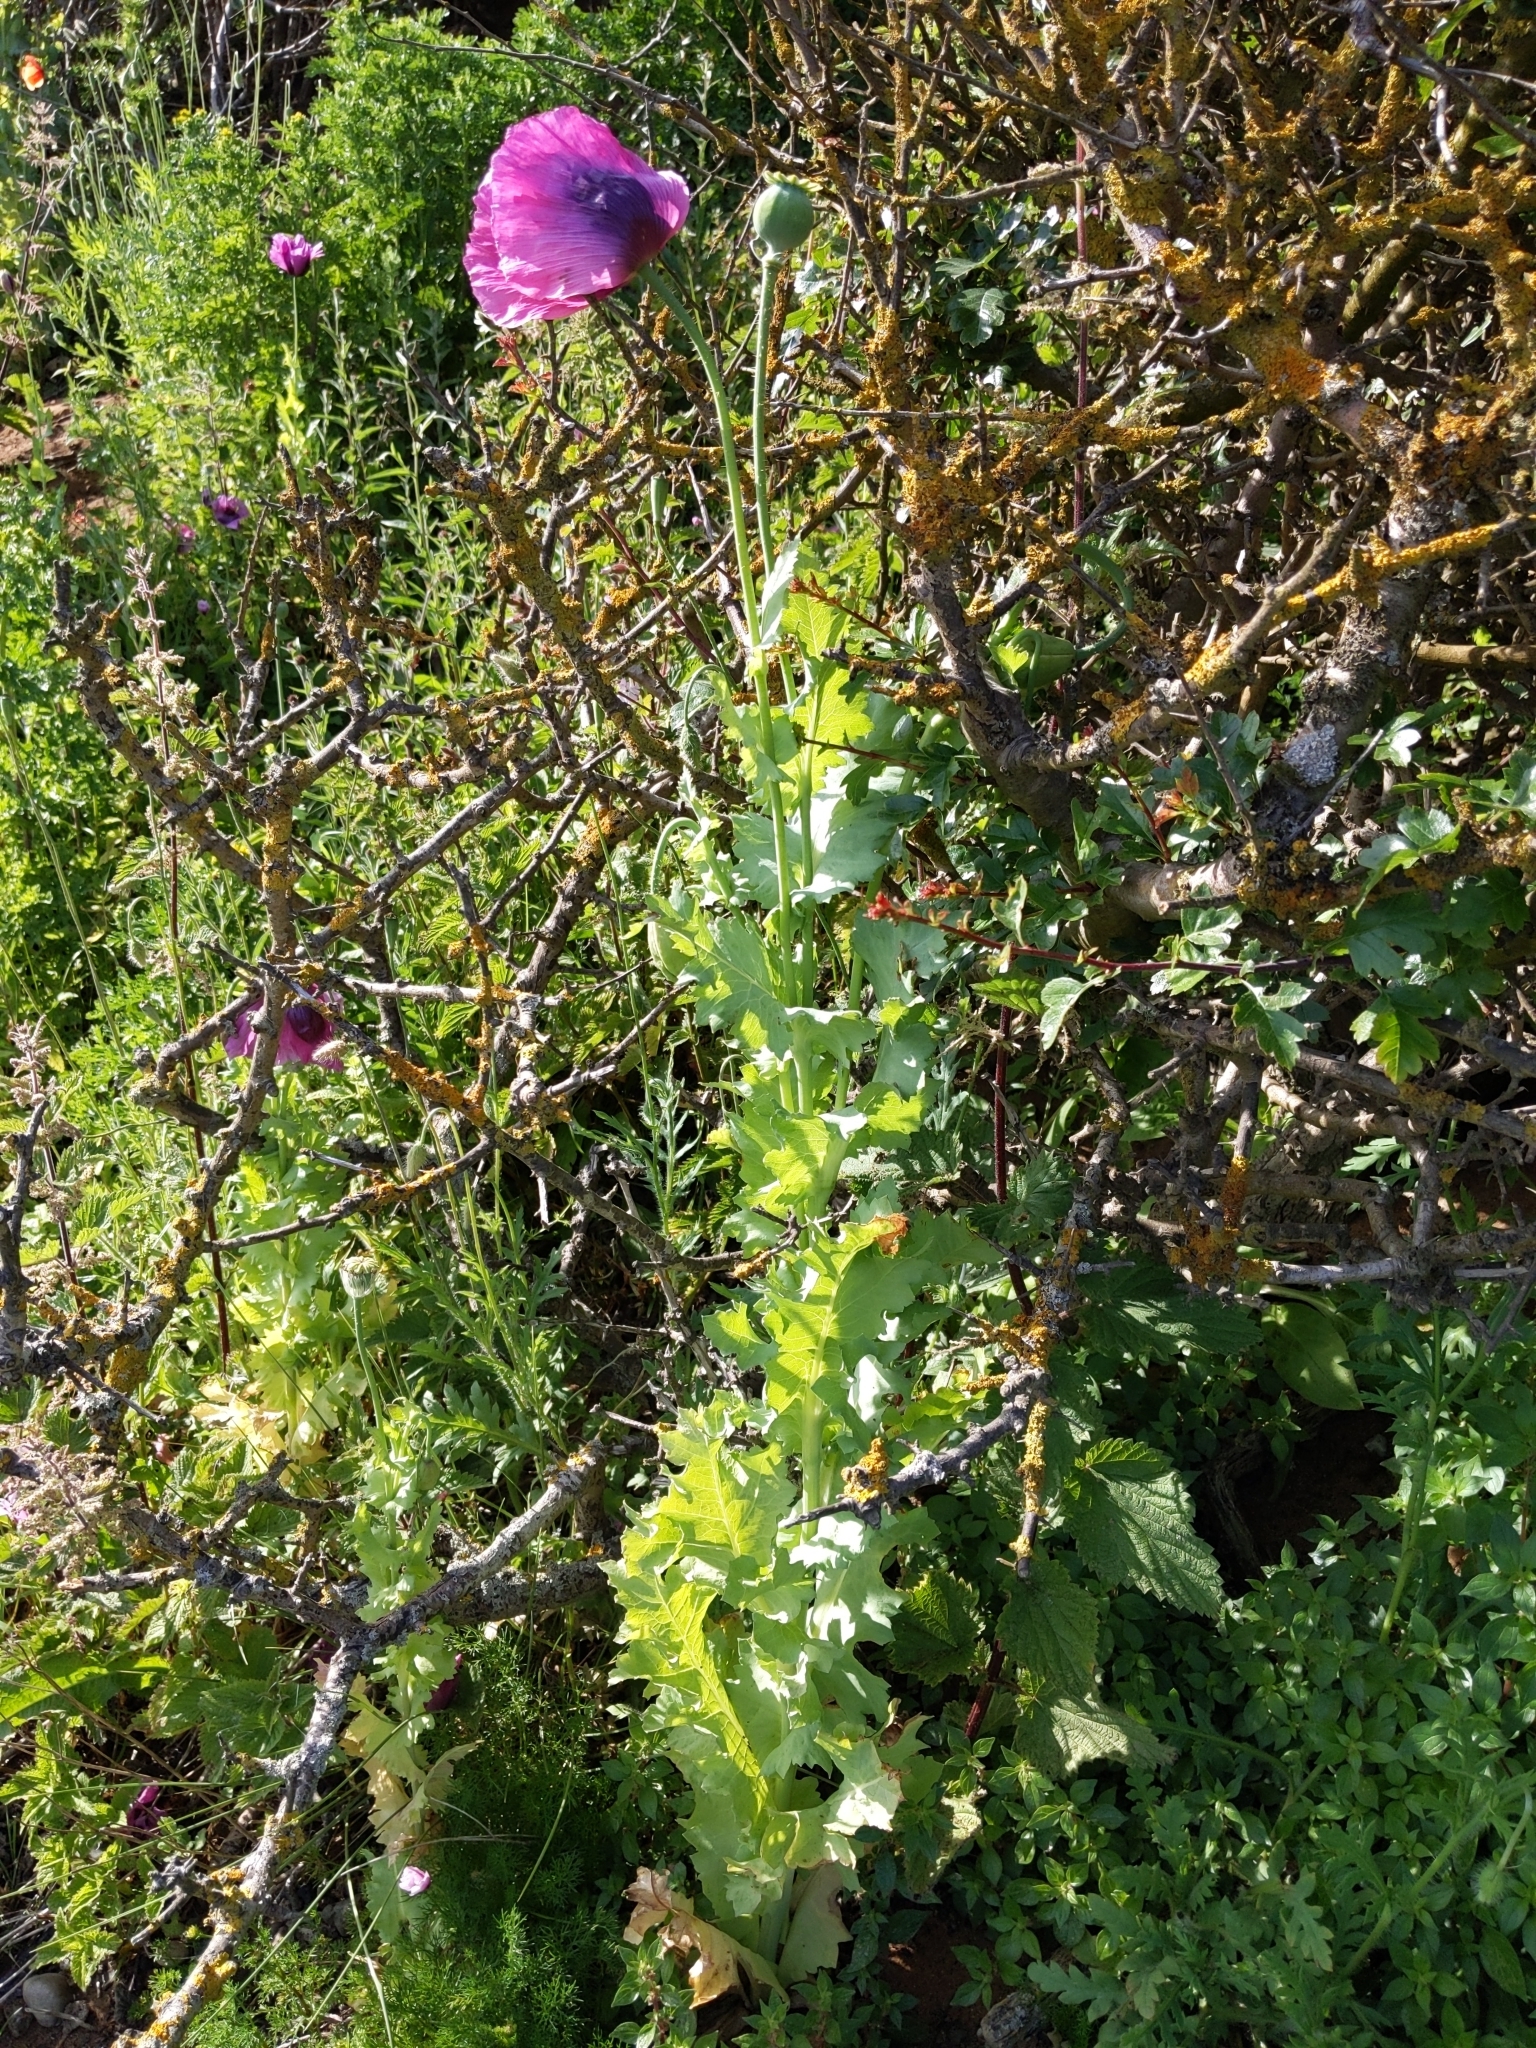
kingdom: Plantae
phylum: Tracheophyta
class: Magnoliopsida
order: Ranunculales
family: Papaveraceae
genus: Papaver
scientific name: Papaver somniferum
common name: Opium poppy
